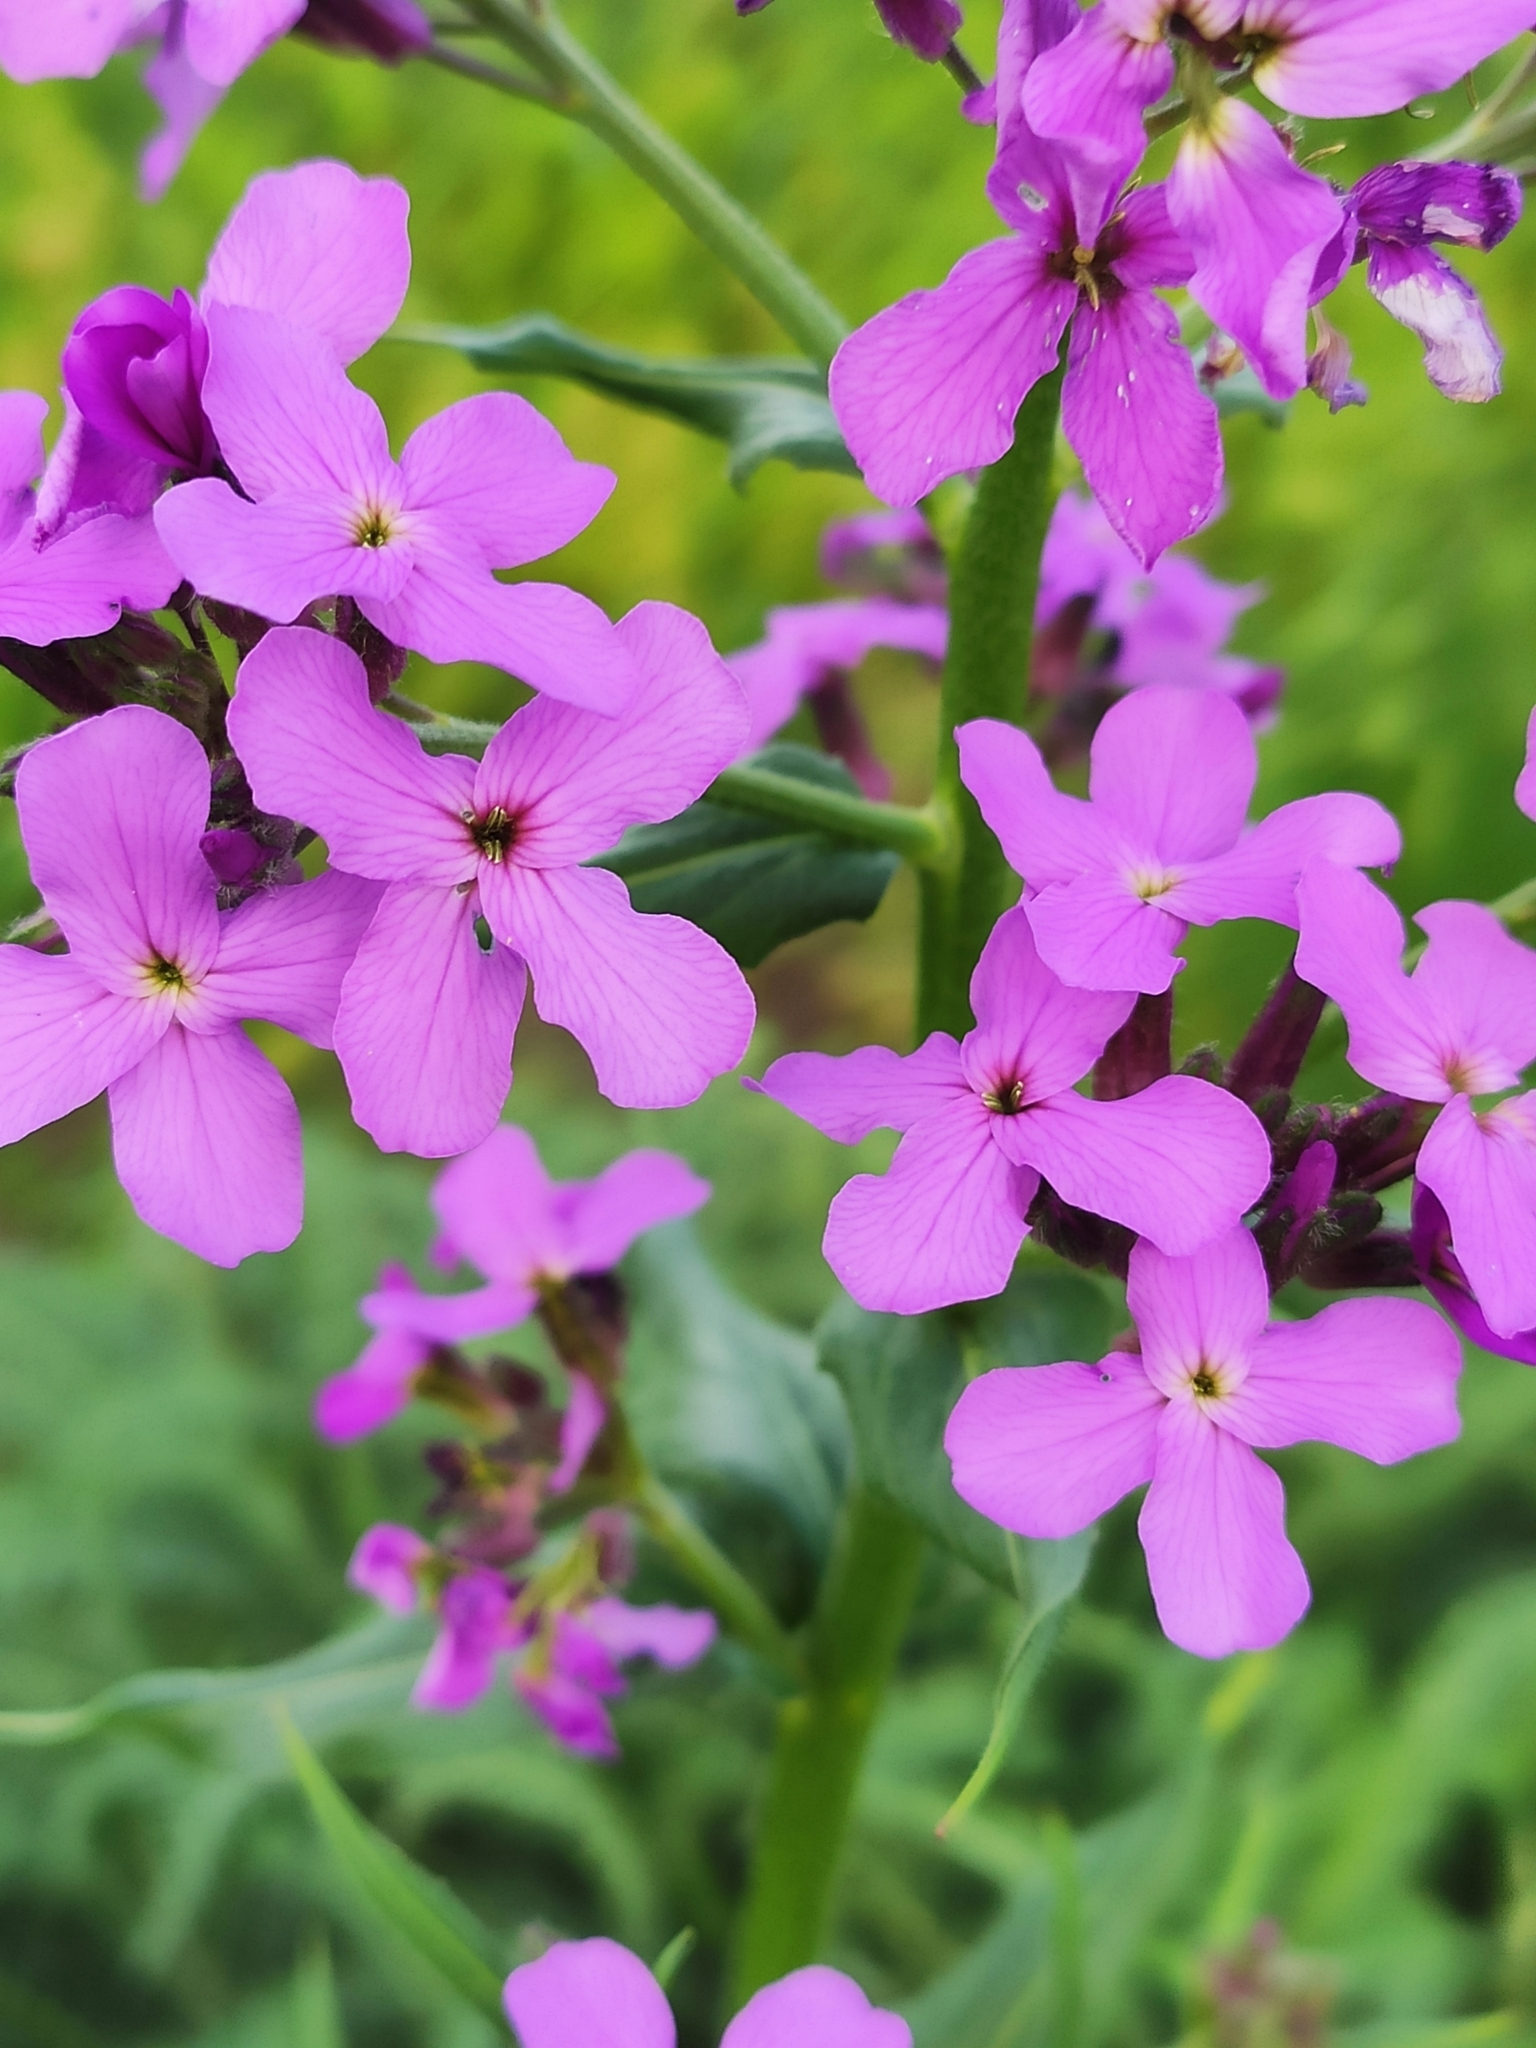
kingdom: Plantae
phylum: Tracheophyta
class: Magnoliopsida
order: Brassicales
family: Brassicaceae
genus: Hesperis
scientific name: Hesperis matronalis
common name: Dame's-violet
